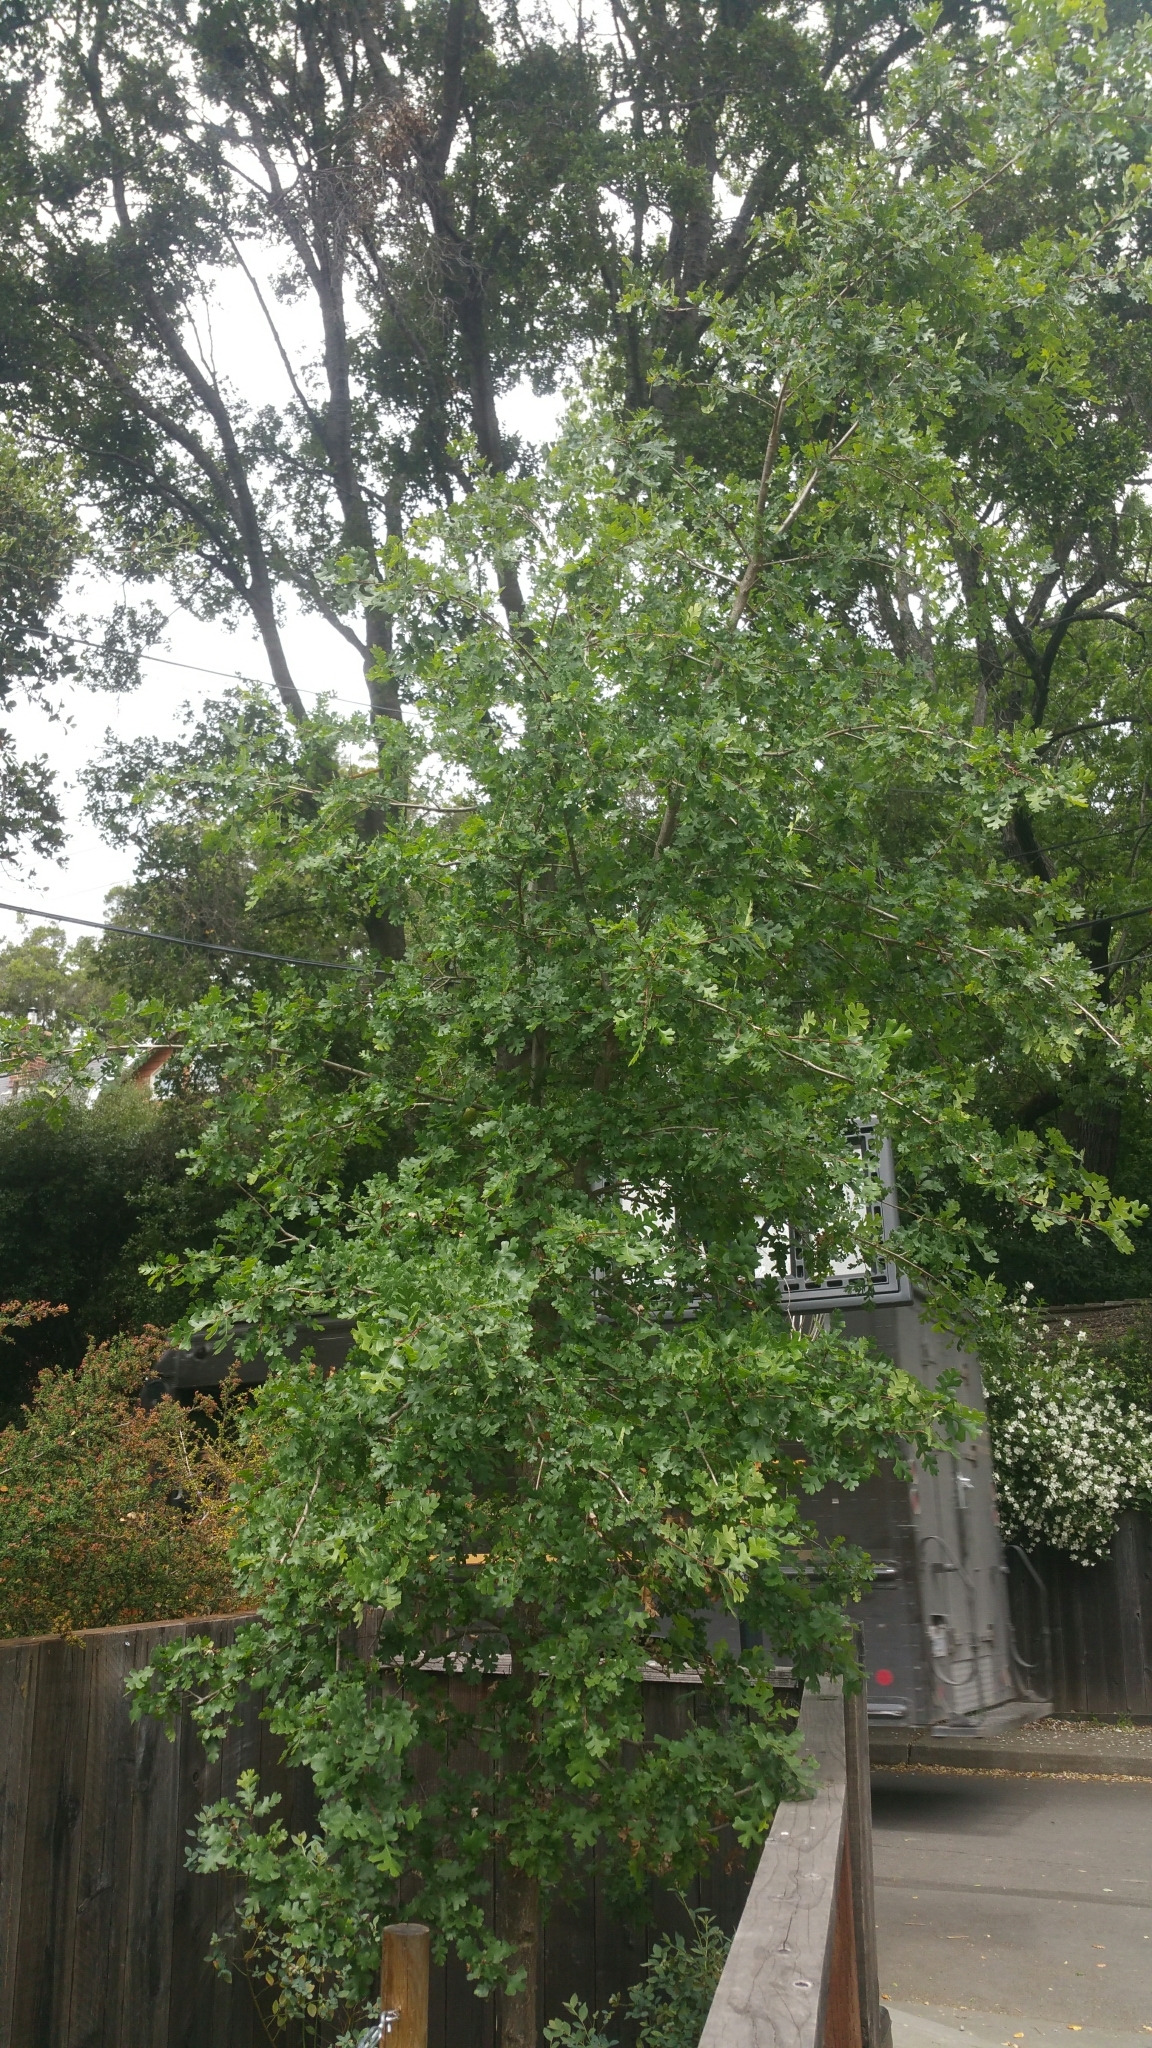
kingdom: Plantae
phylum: Tracheophyta
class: Magnoliopsida
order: Fagales
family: Fagaceae
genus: Quercus
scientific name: Quercus lobata
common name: Valley oak
